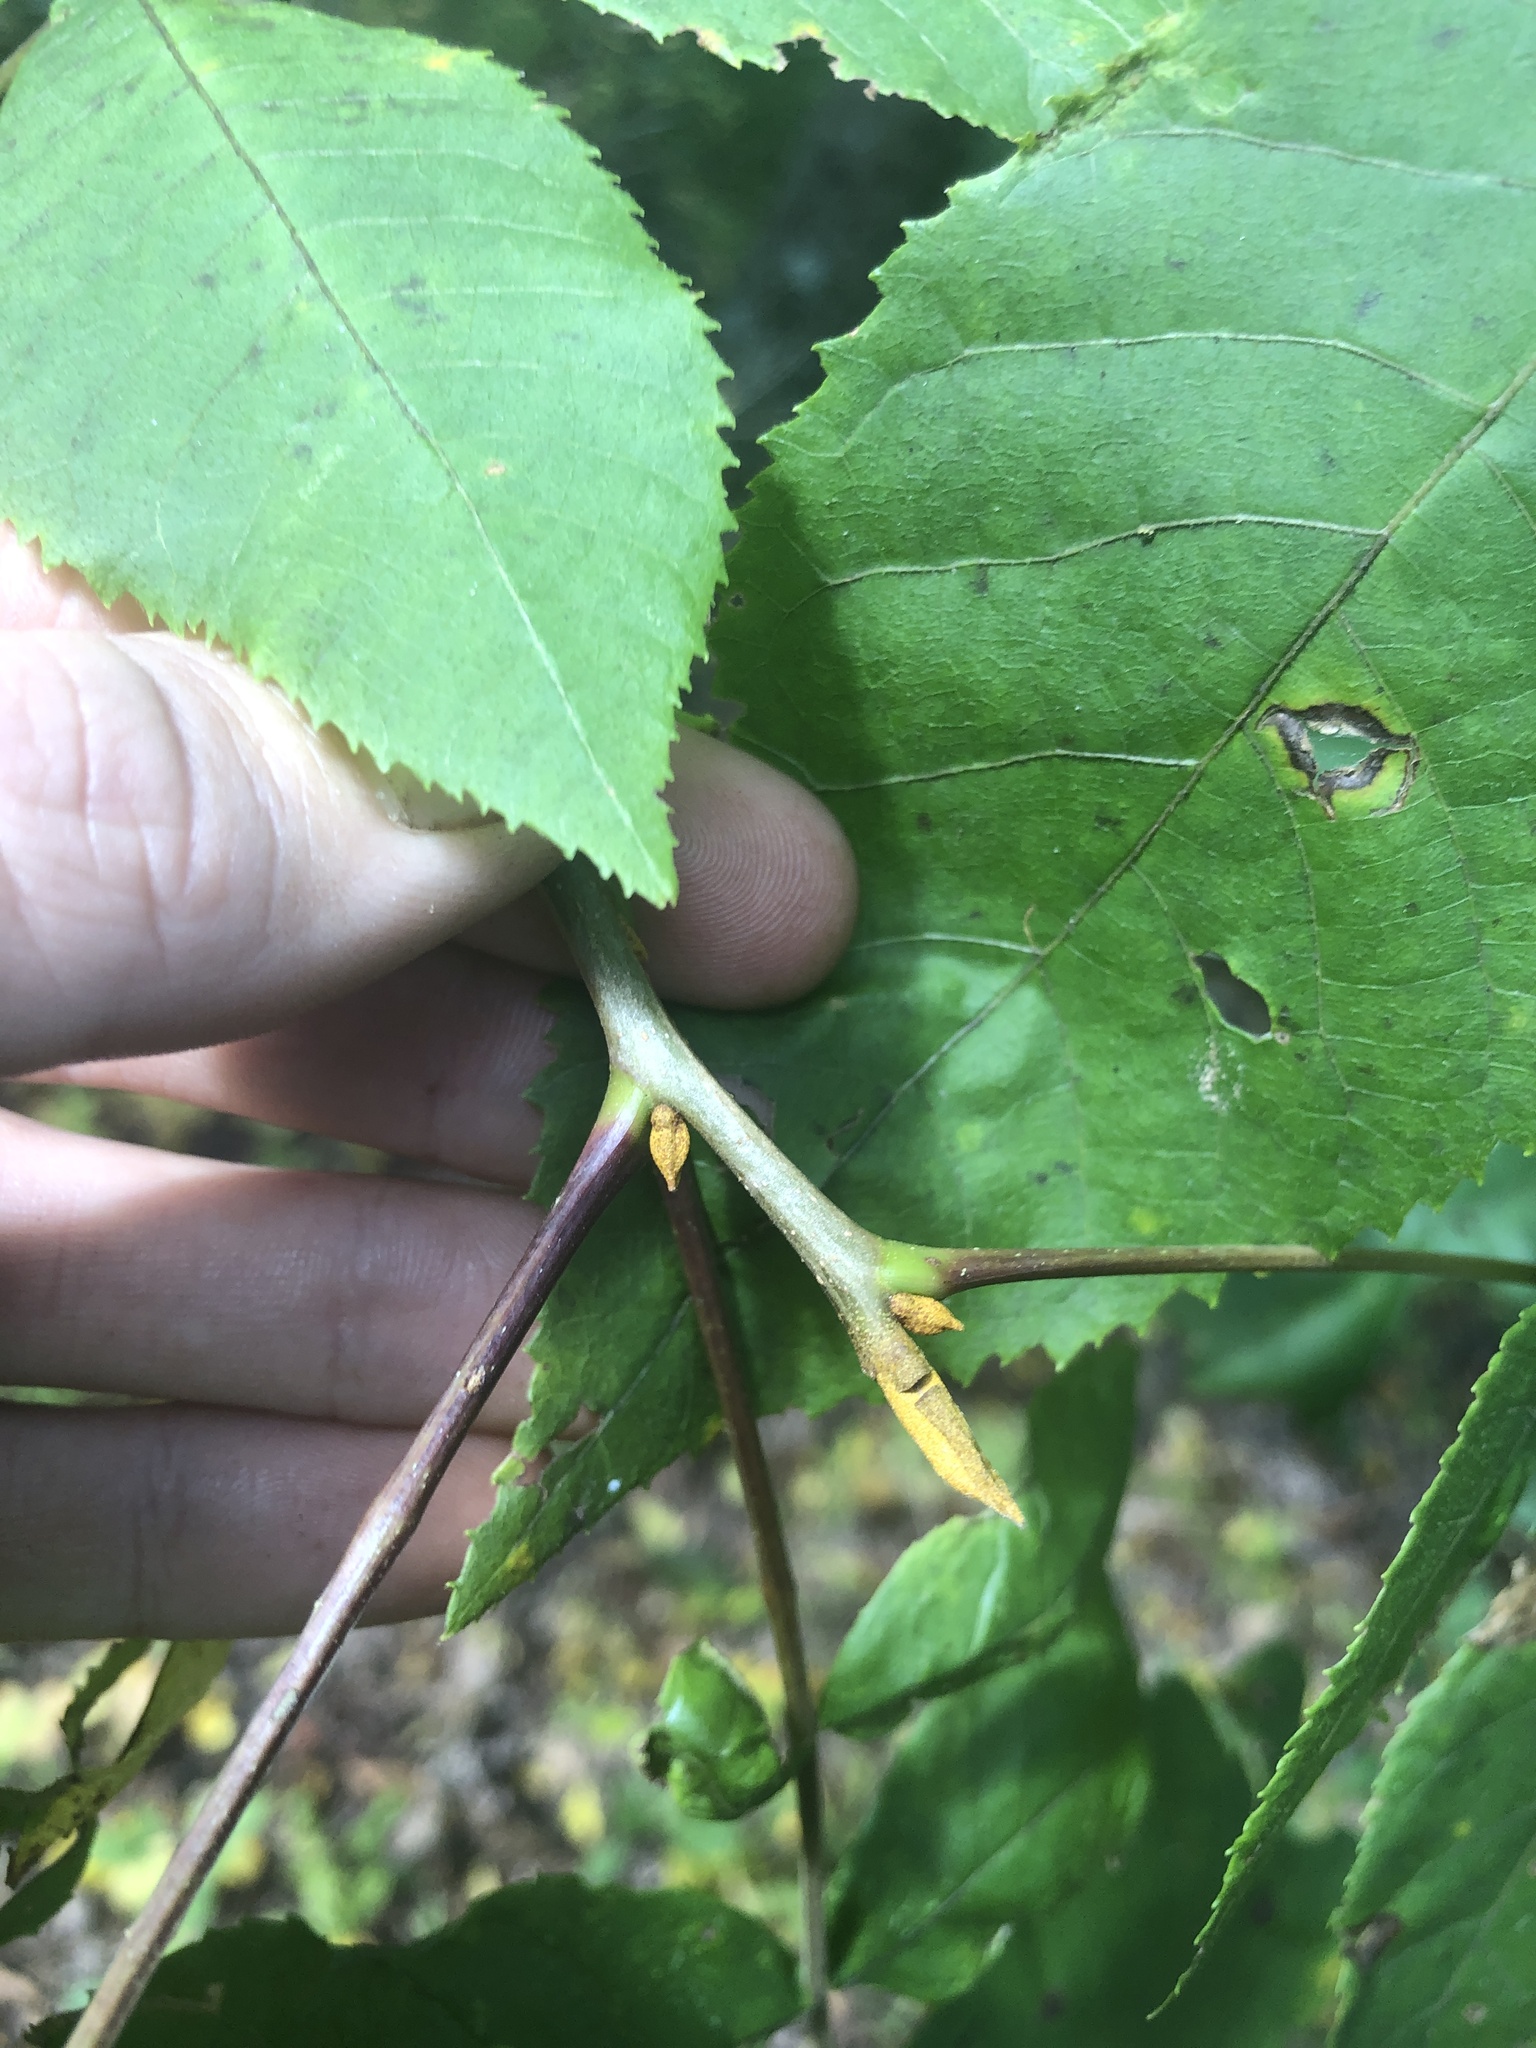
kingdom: Plantae
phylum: Tracheophyta
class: Magnoliopsida
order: Fagales
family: Juglandaceae
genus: Carya
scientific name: Carya cordiformis
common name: Bitternut hickory
